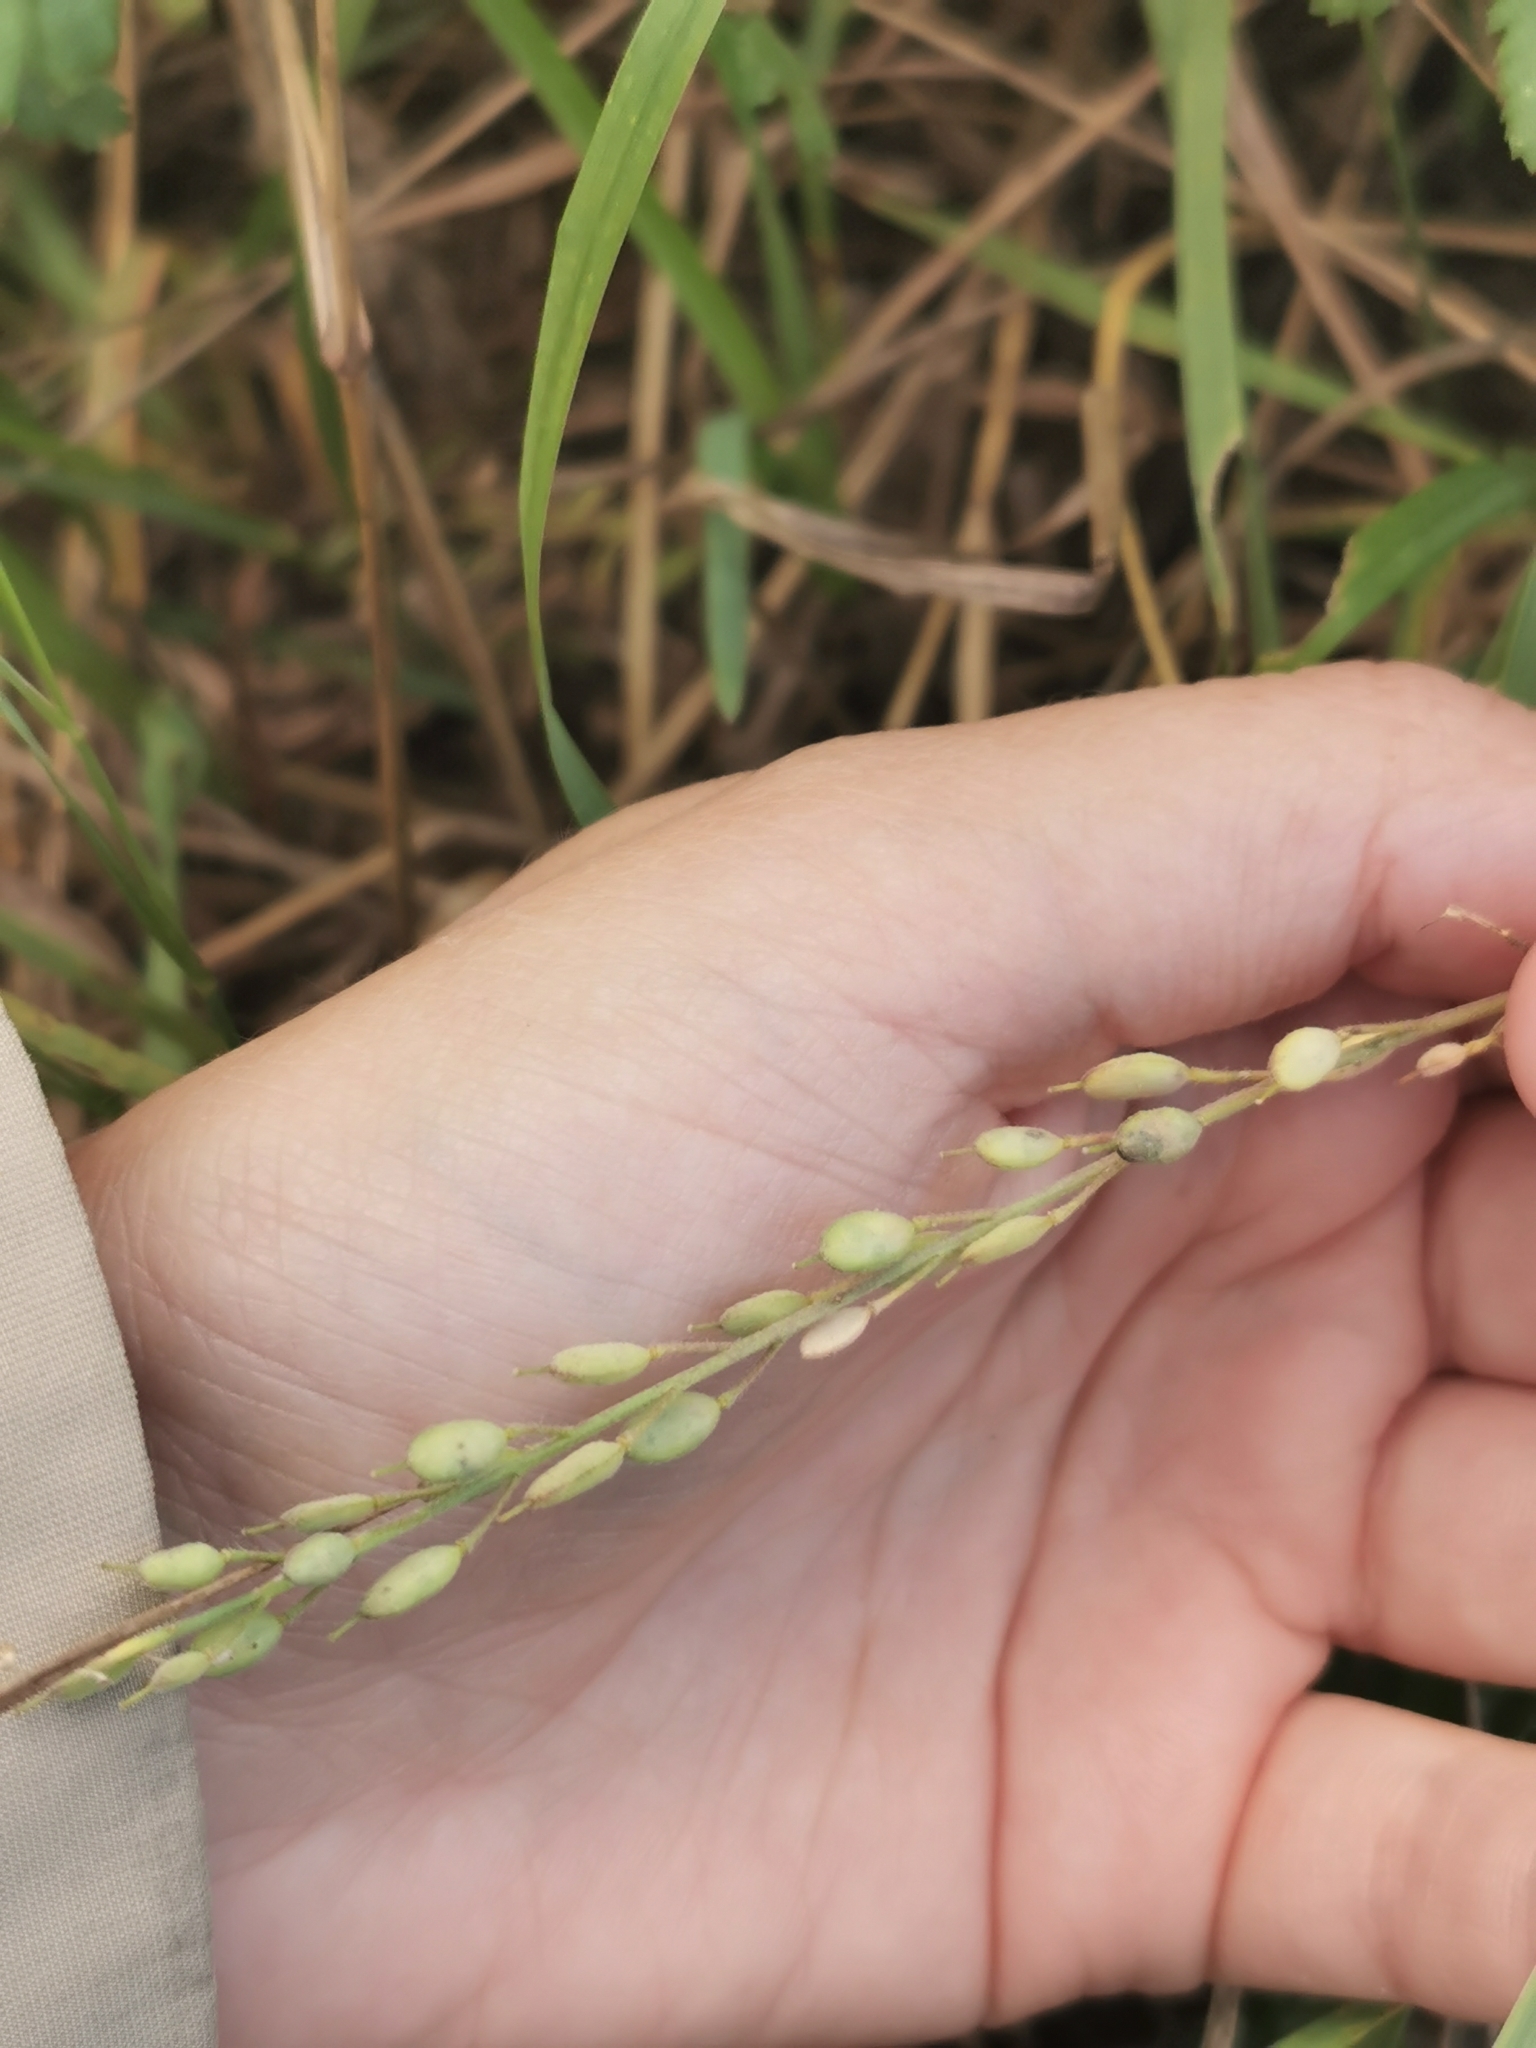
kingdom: Plantae
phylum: Tracheophyta
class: Magnoliopsida
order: Brassicales
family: Brassicaceae
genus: Berteroa
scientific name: Berteroa incana
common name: Hoary alison
